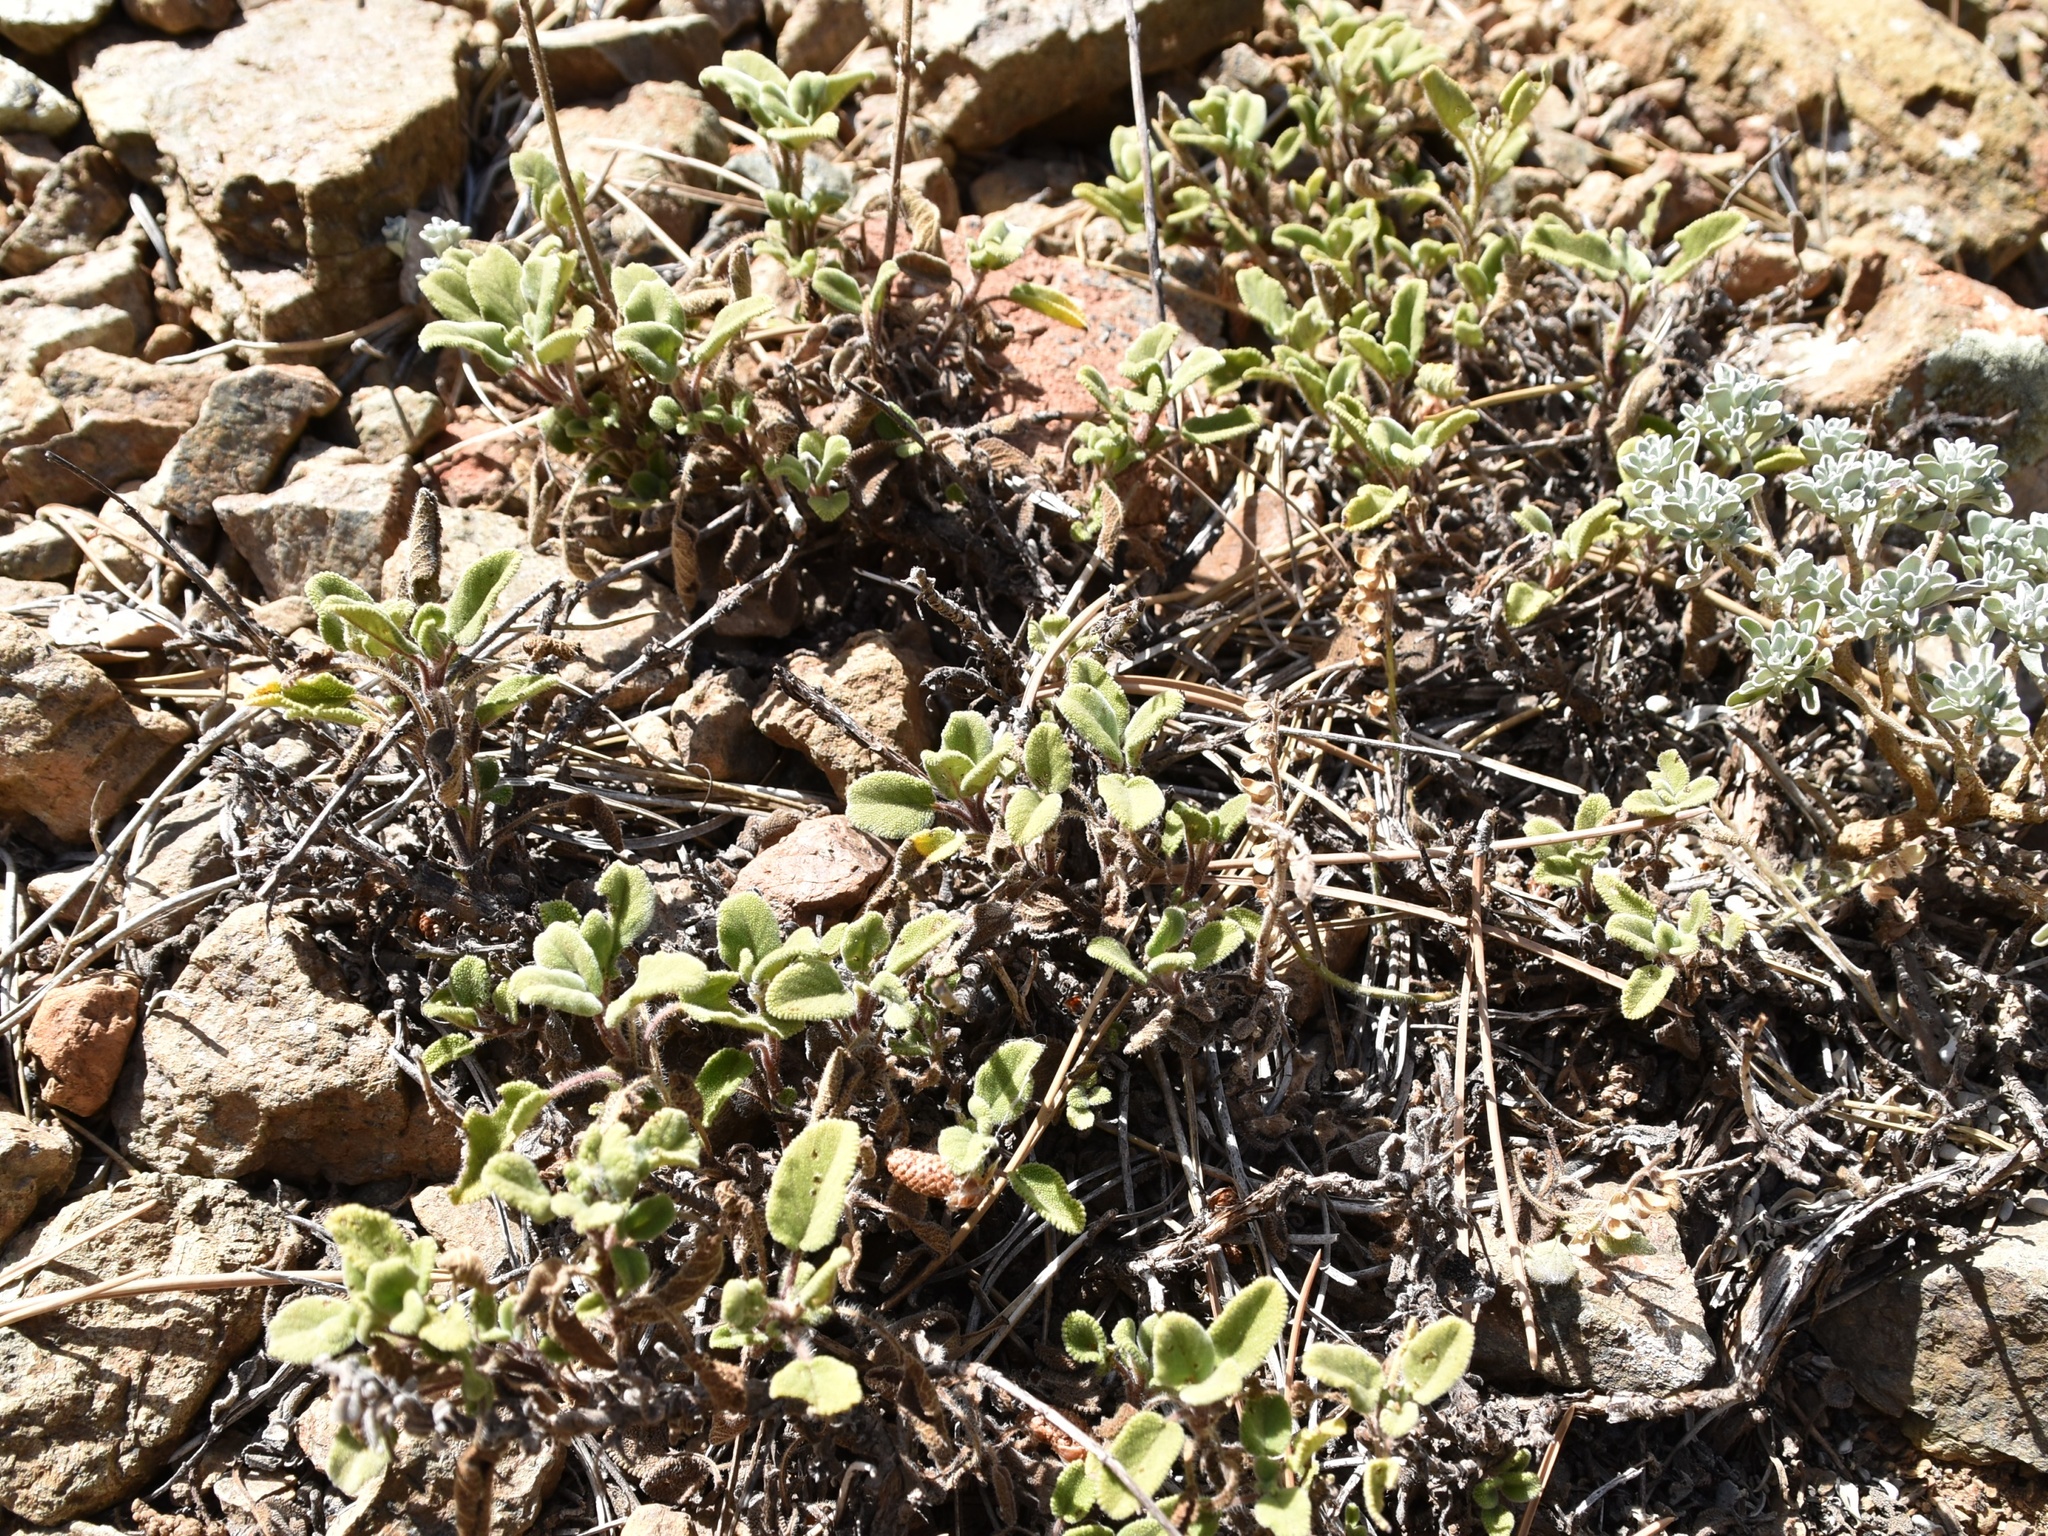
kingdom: Plantae
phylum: Tracheophyta
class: Magnoliopsida
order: Lamiales
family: Lamiaceae
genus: Salvia
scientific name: Salvia willeana
